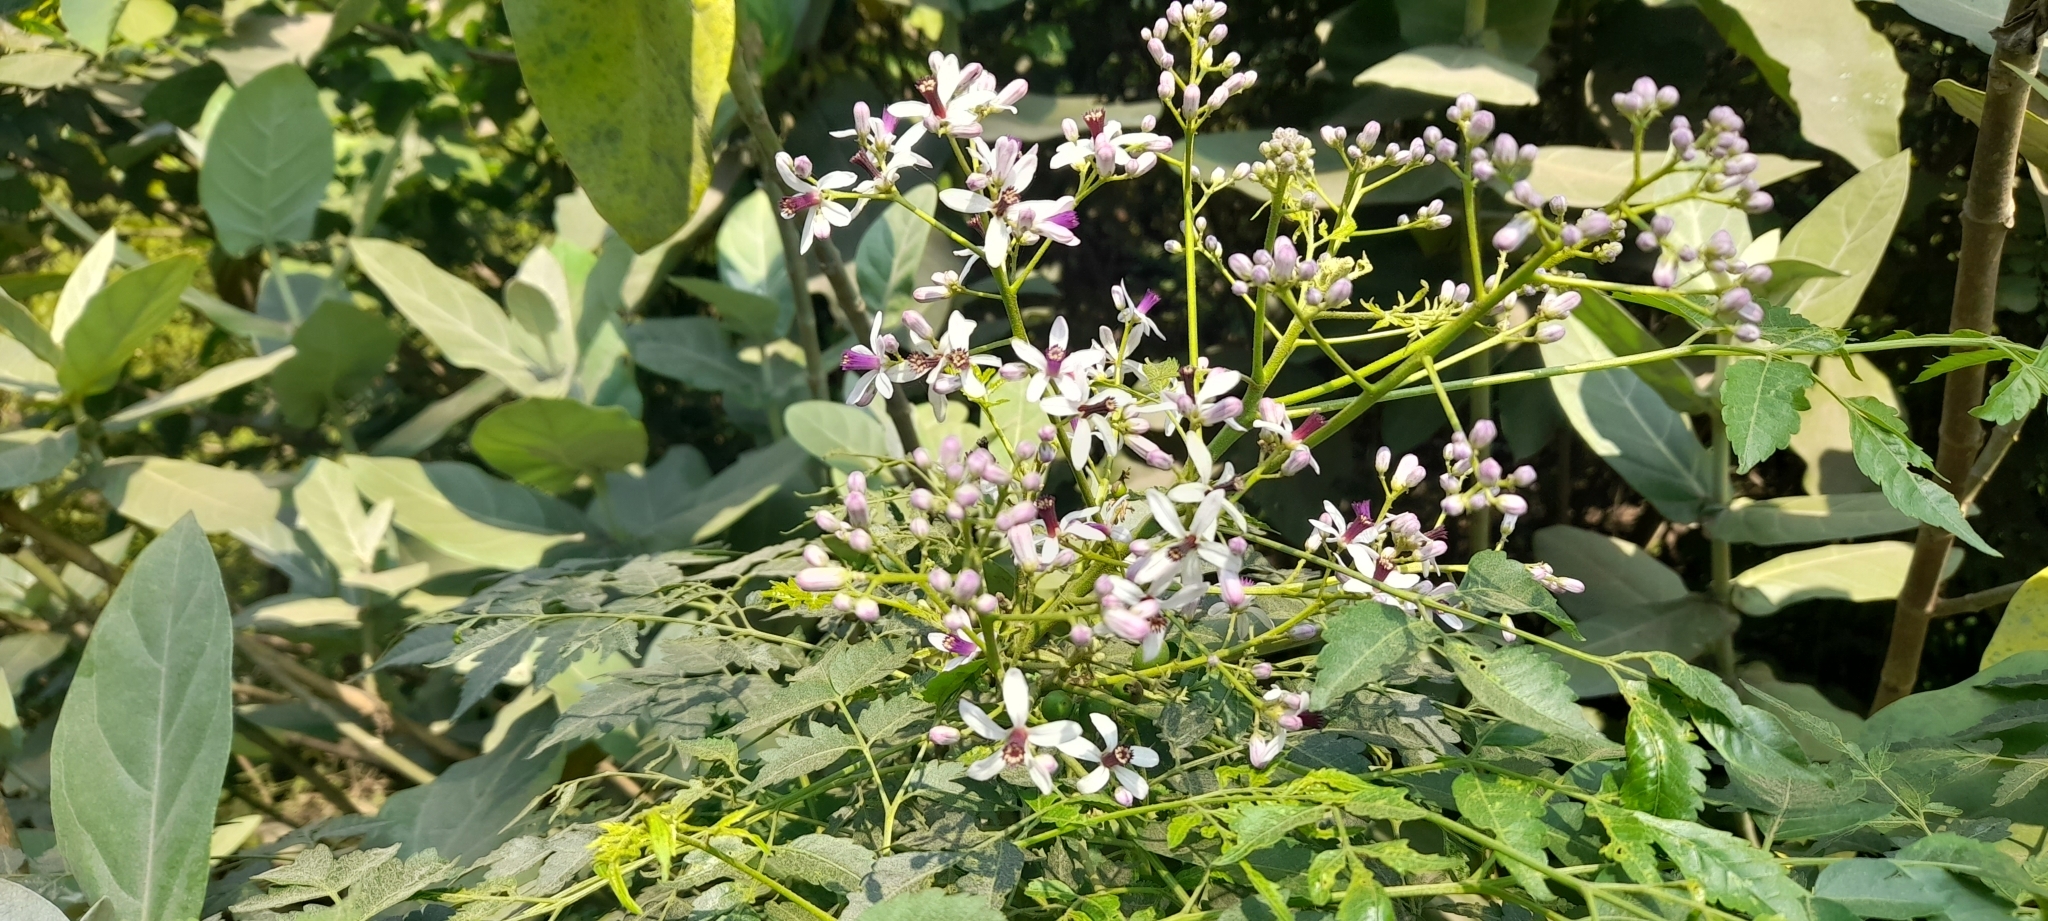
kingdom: Plantae
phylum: Tracheophyta
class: Magnoliopsida
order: Sapindales
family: Meliaceae
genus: Melia
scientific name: Melia azedarach
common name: Chinaberrytree
